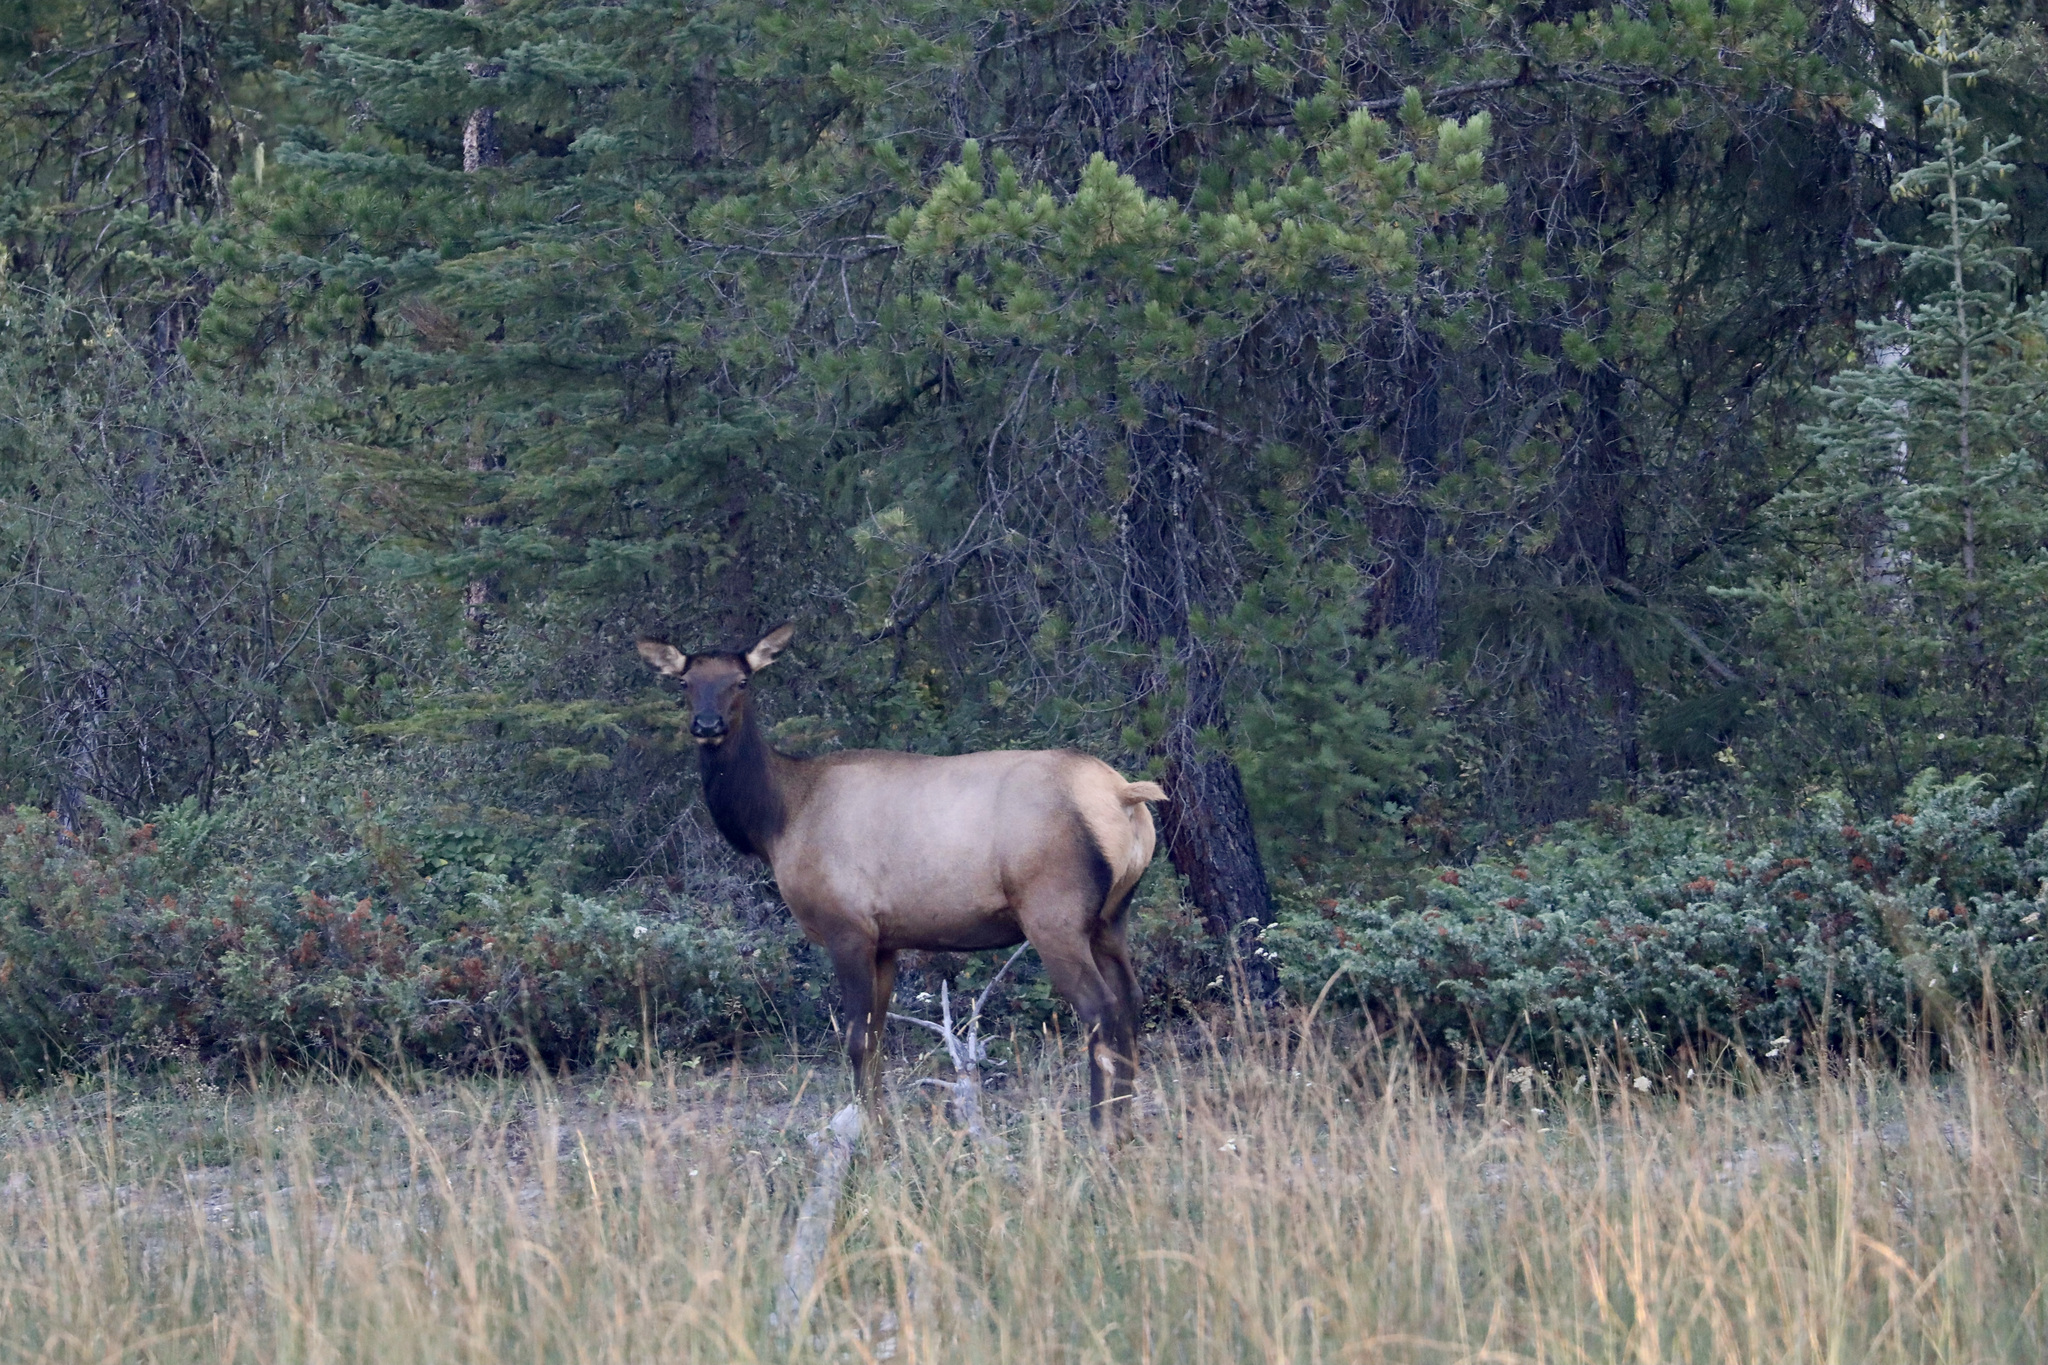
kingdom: Animalia
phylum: Chordata
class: Mammalia
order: Artiodactyla
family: Cervidae
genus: Cervus
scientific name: Cervus elaphus
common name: Red deer
